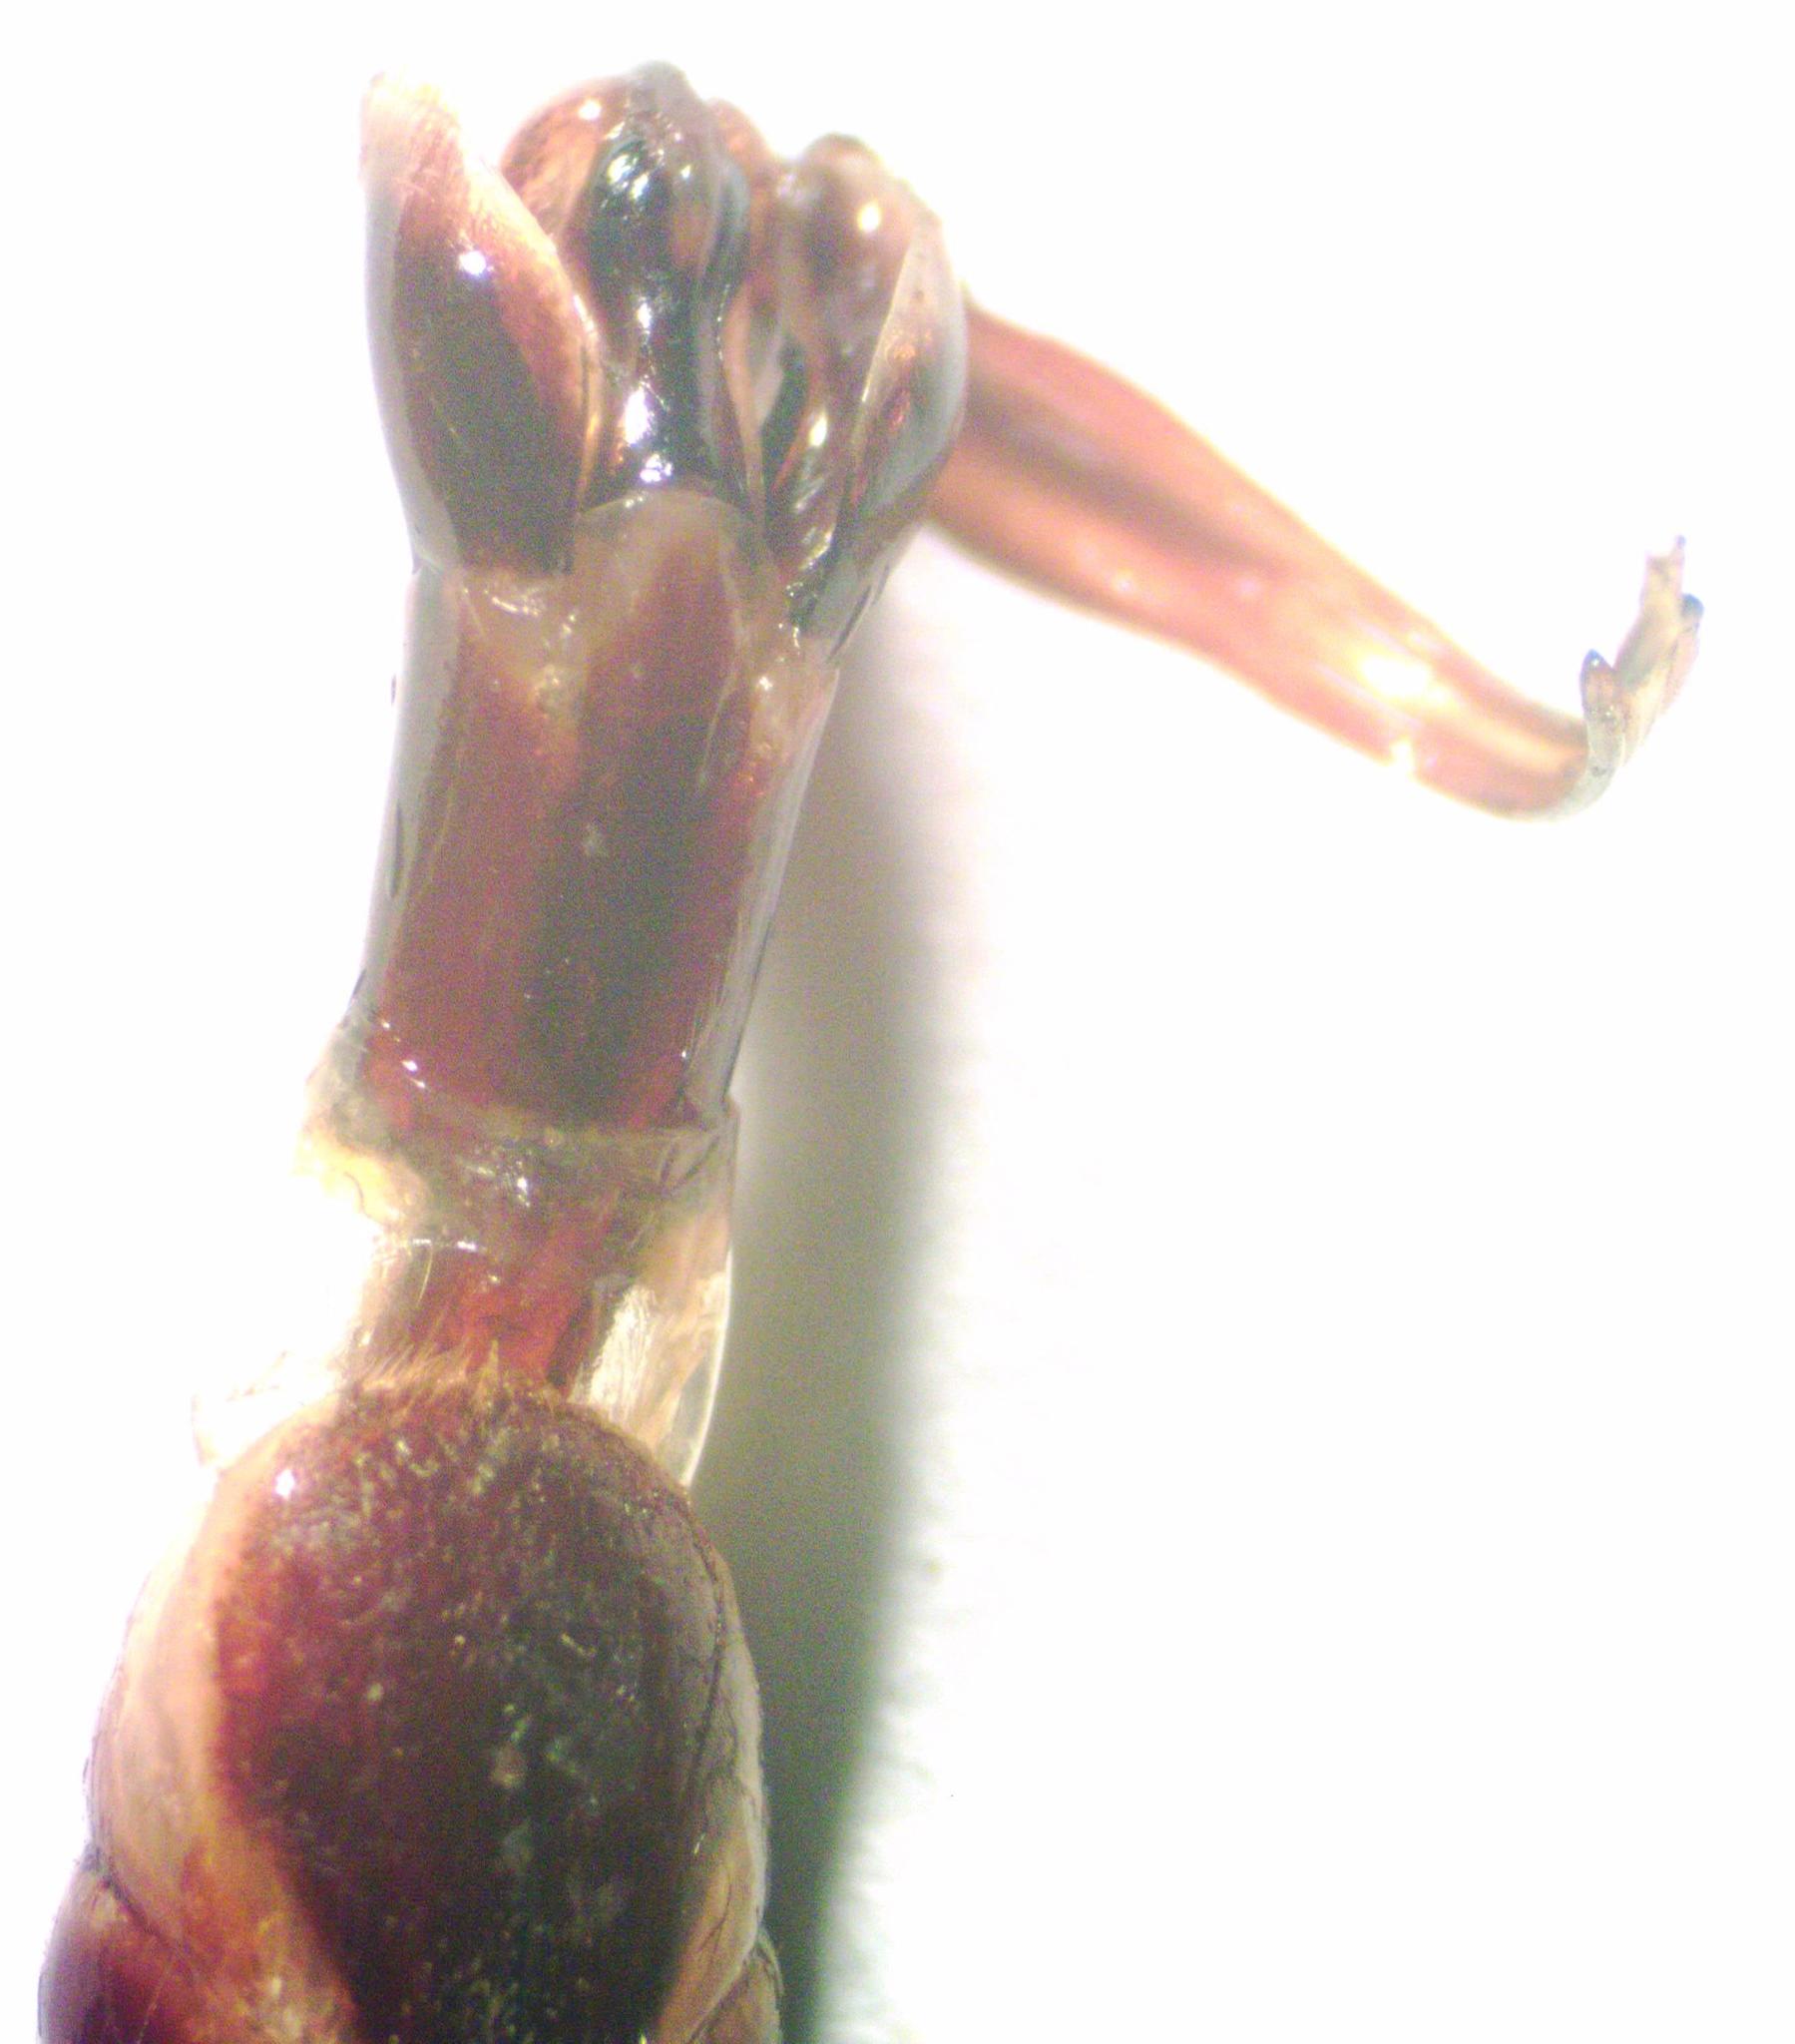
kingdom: Animalia
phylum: Arthropoda
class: Insecta
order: Coleoptera
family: Lucanidae
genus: Dorcus
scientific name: Dorcus antaeus
